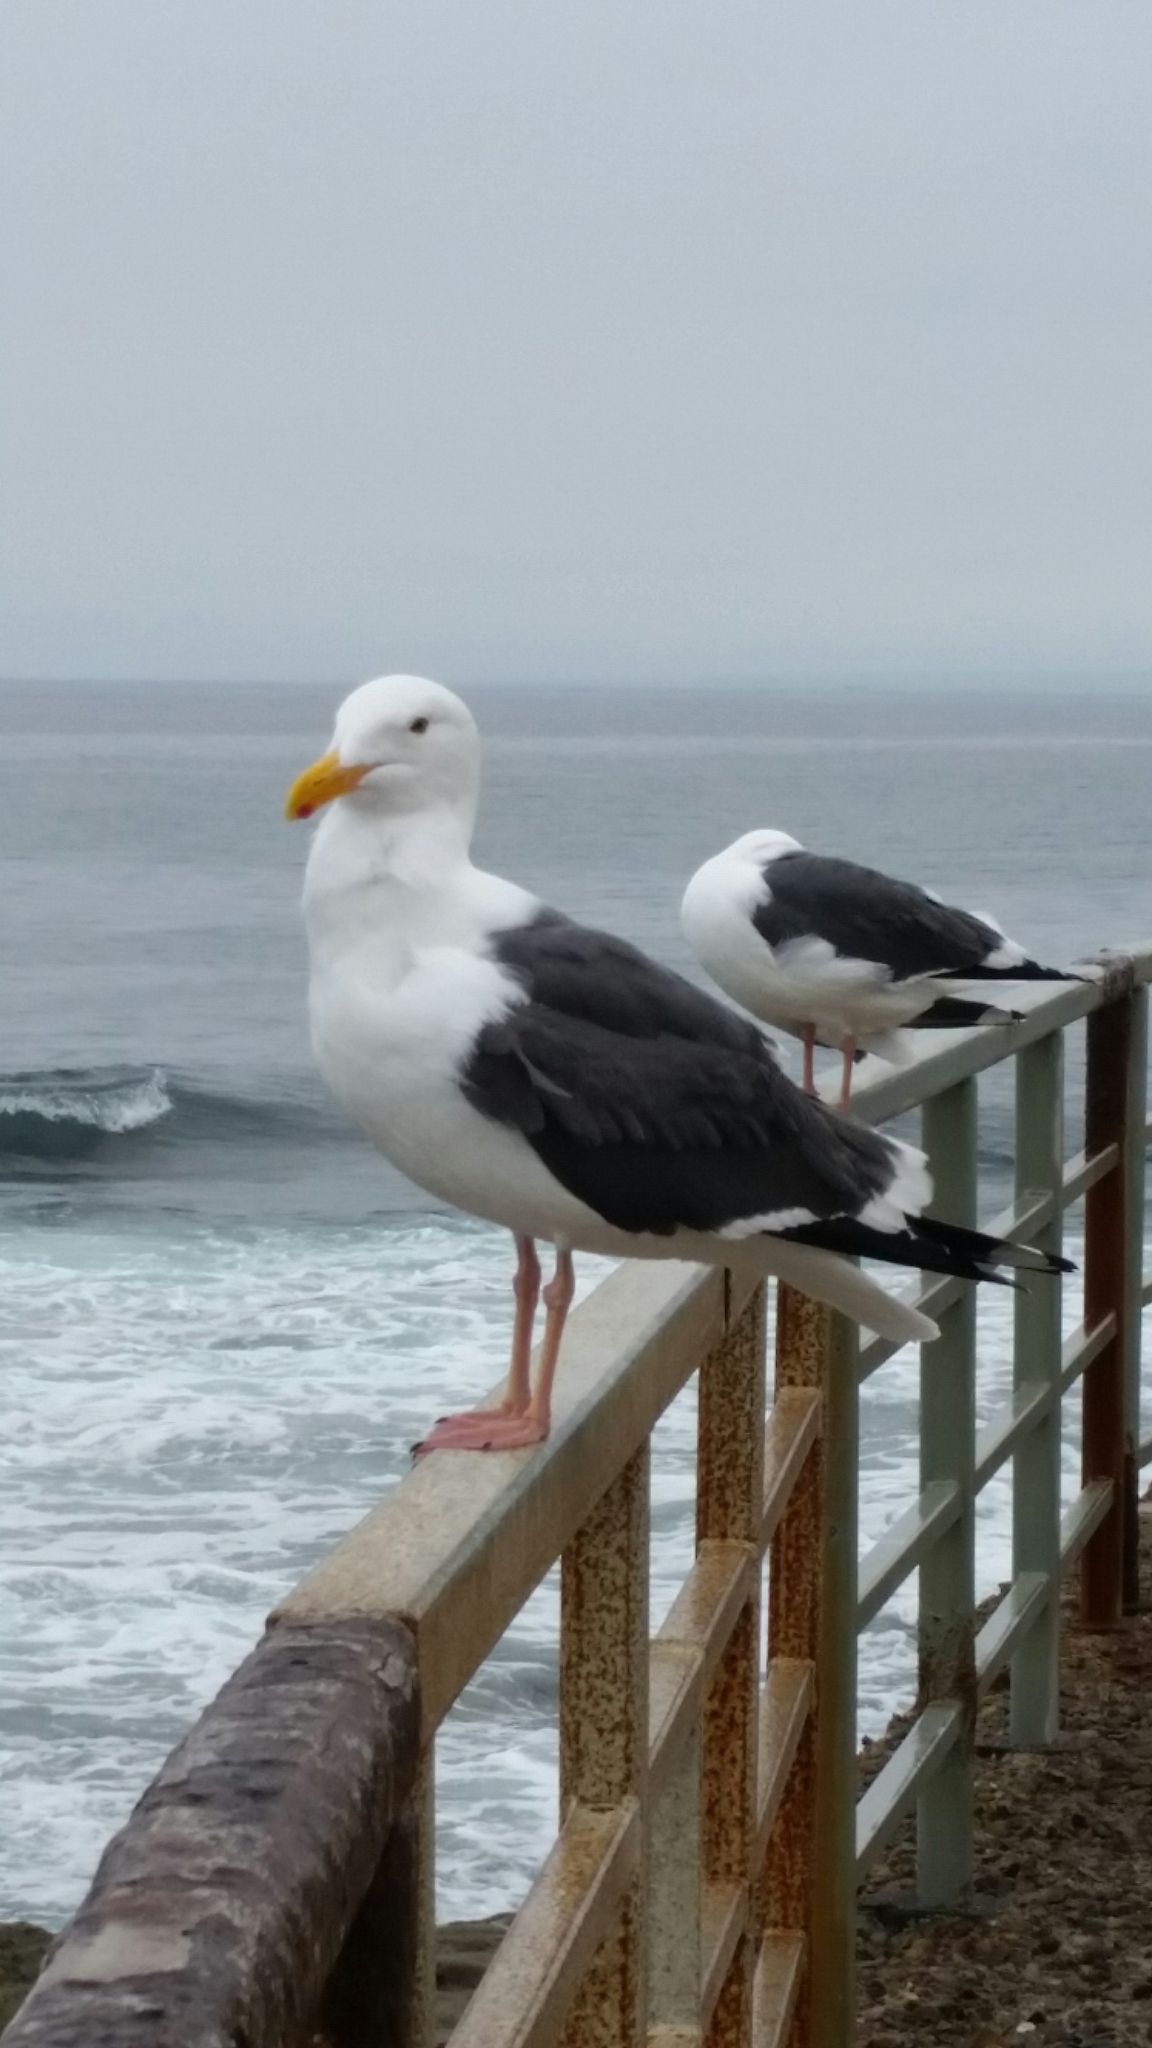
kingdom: Animalia
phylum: Chordata
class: Aves
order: Charadriiformes
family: Laridae
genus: Larus
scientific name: Larus occidentalis
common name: Western gull
